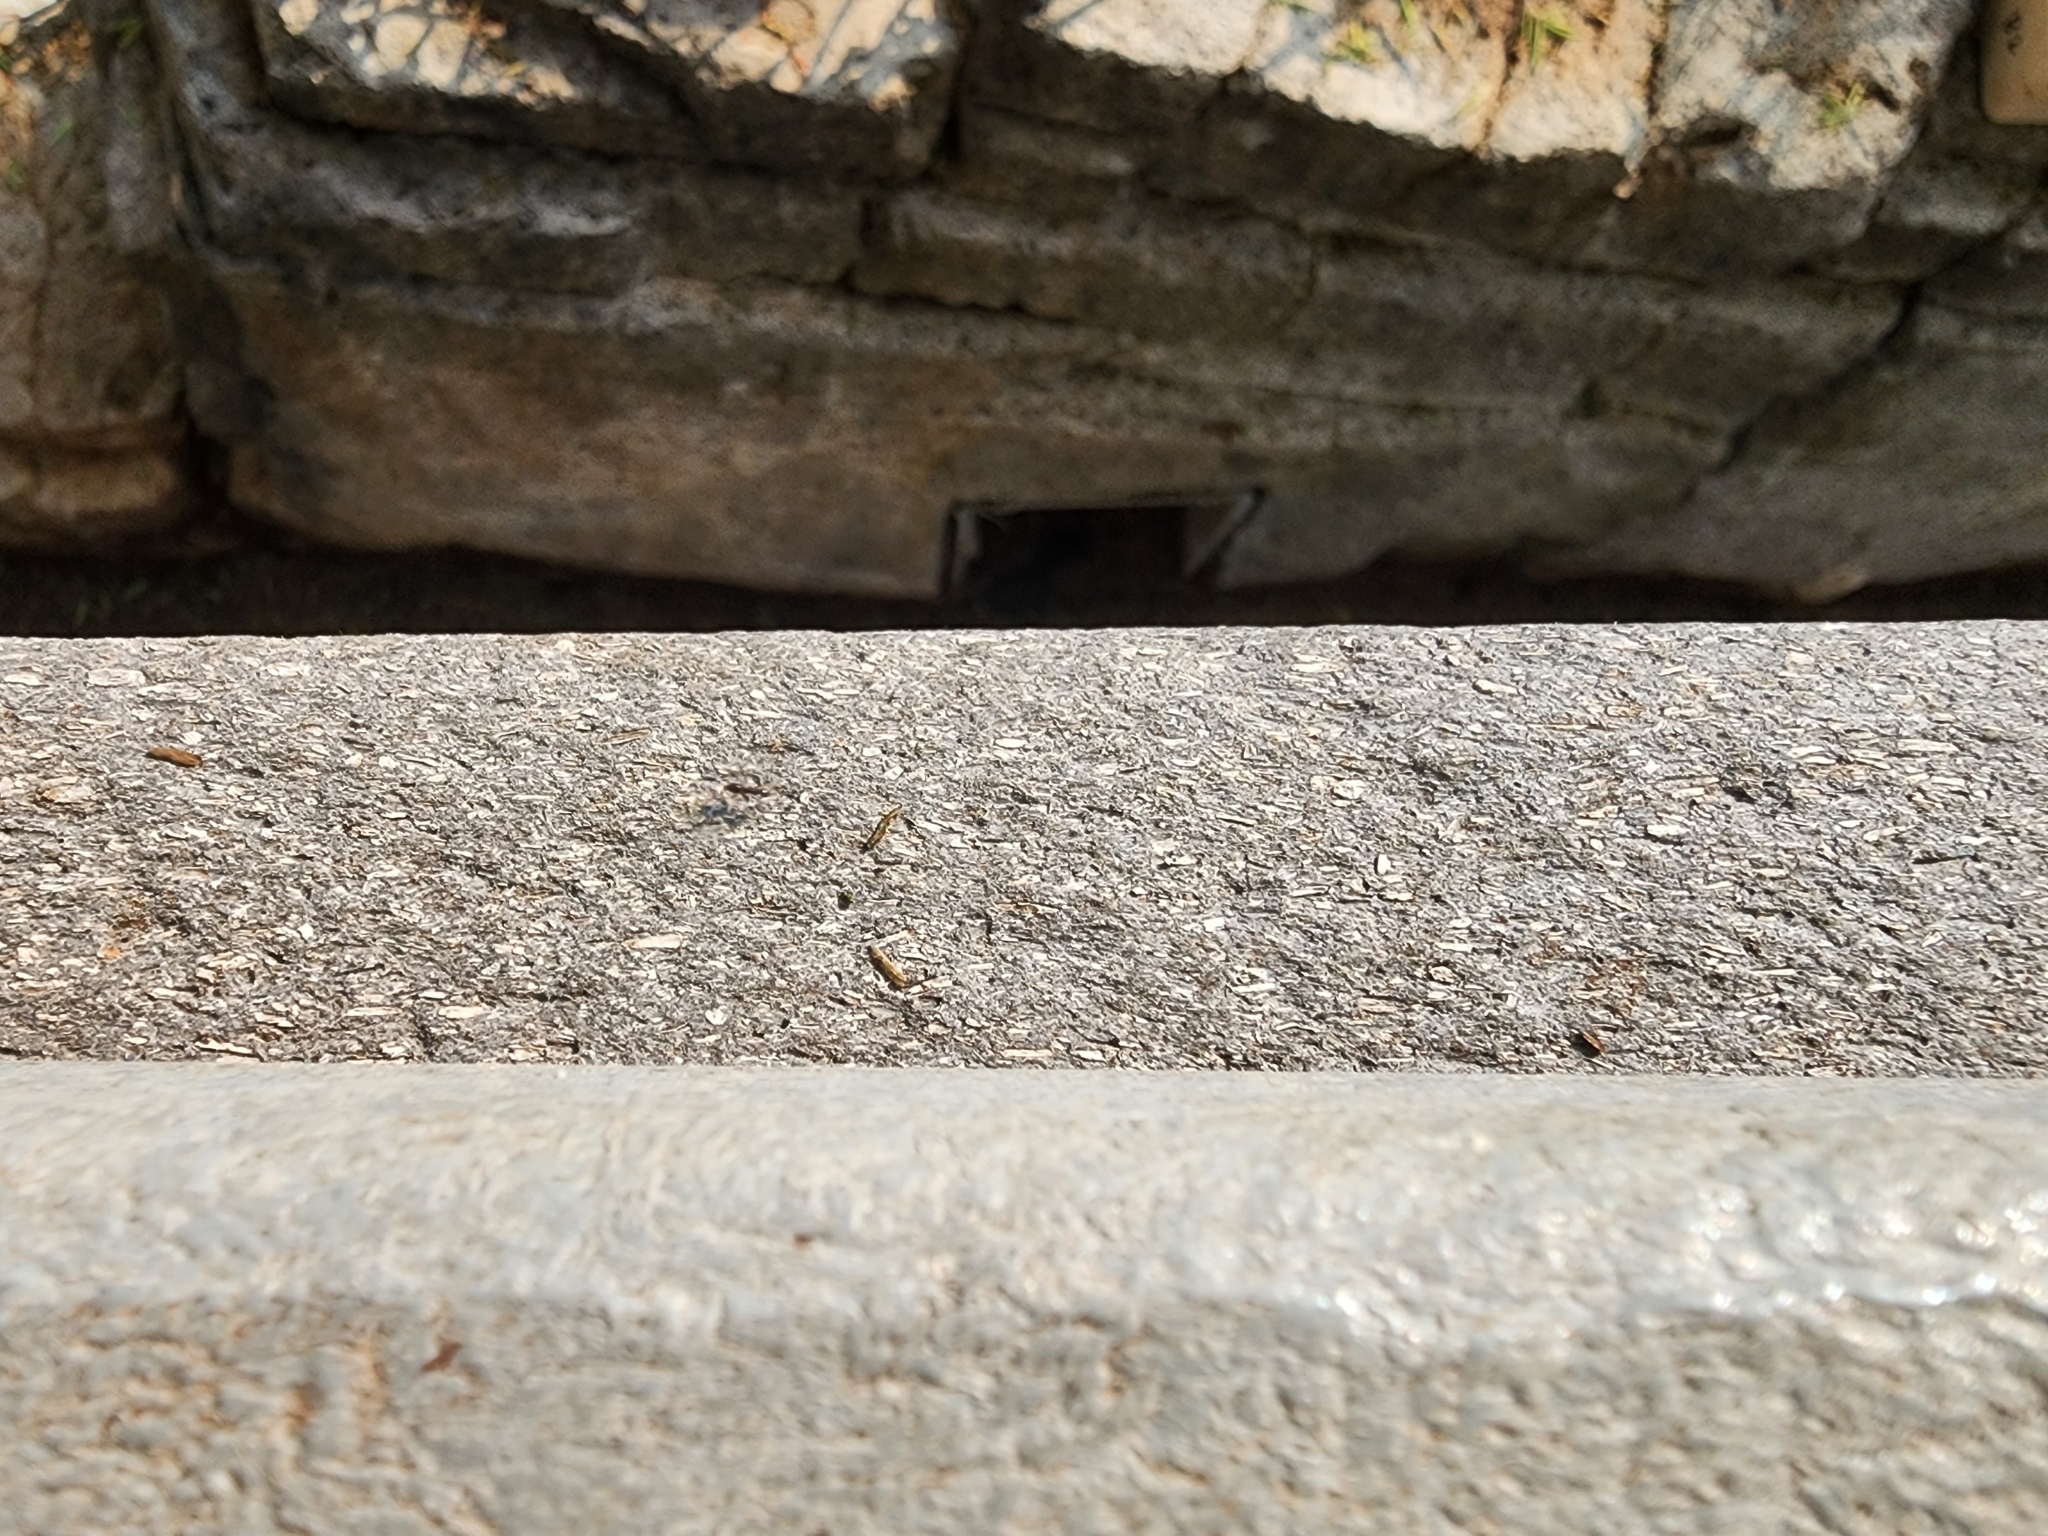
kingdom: Animalia
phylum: Arthropoda
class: Insecta
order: Hymenoptera
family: Formicidae
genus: Paratrechina
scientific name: Paratrechina longicornis
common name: Longhorned crazy ant
